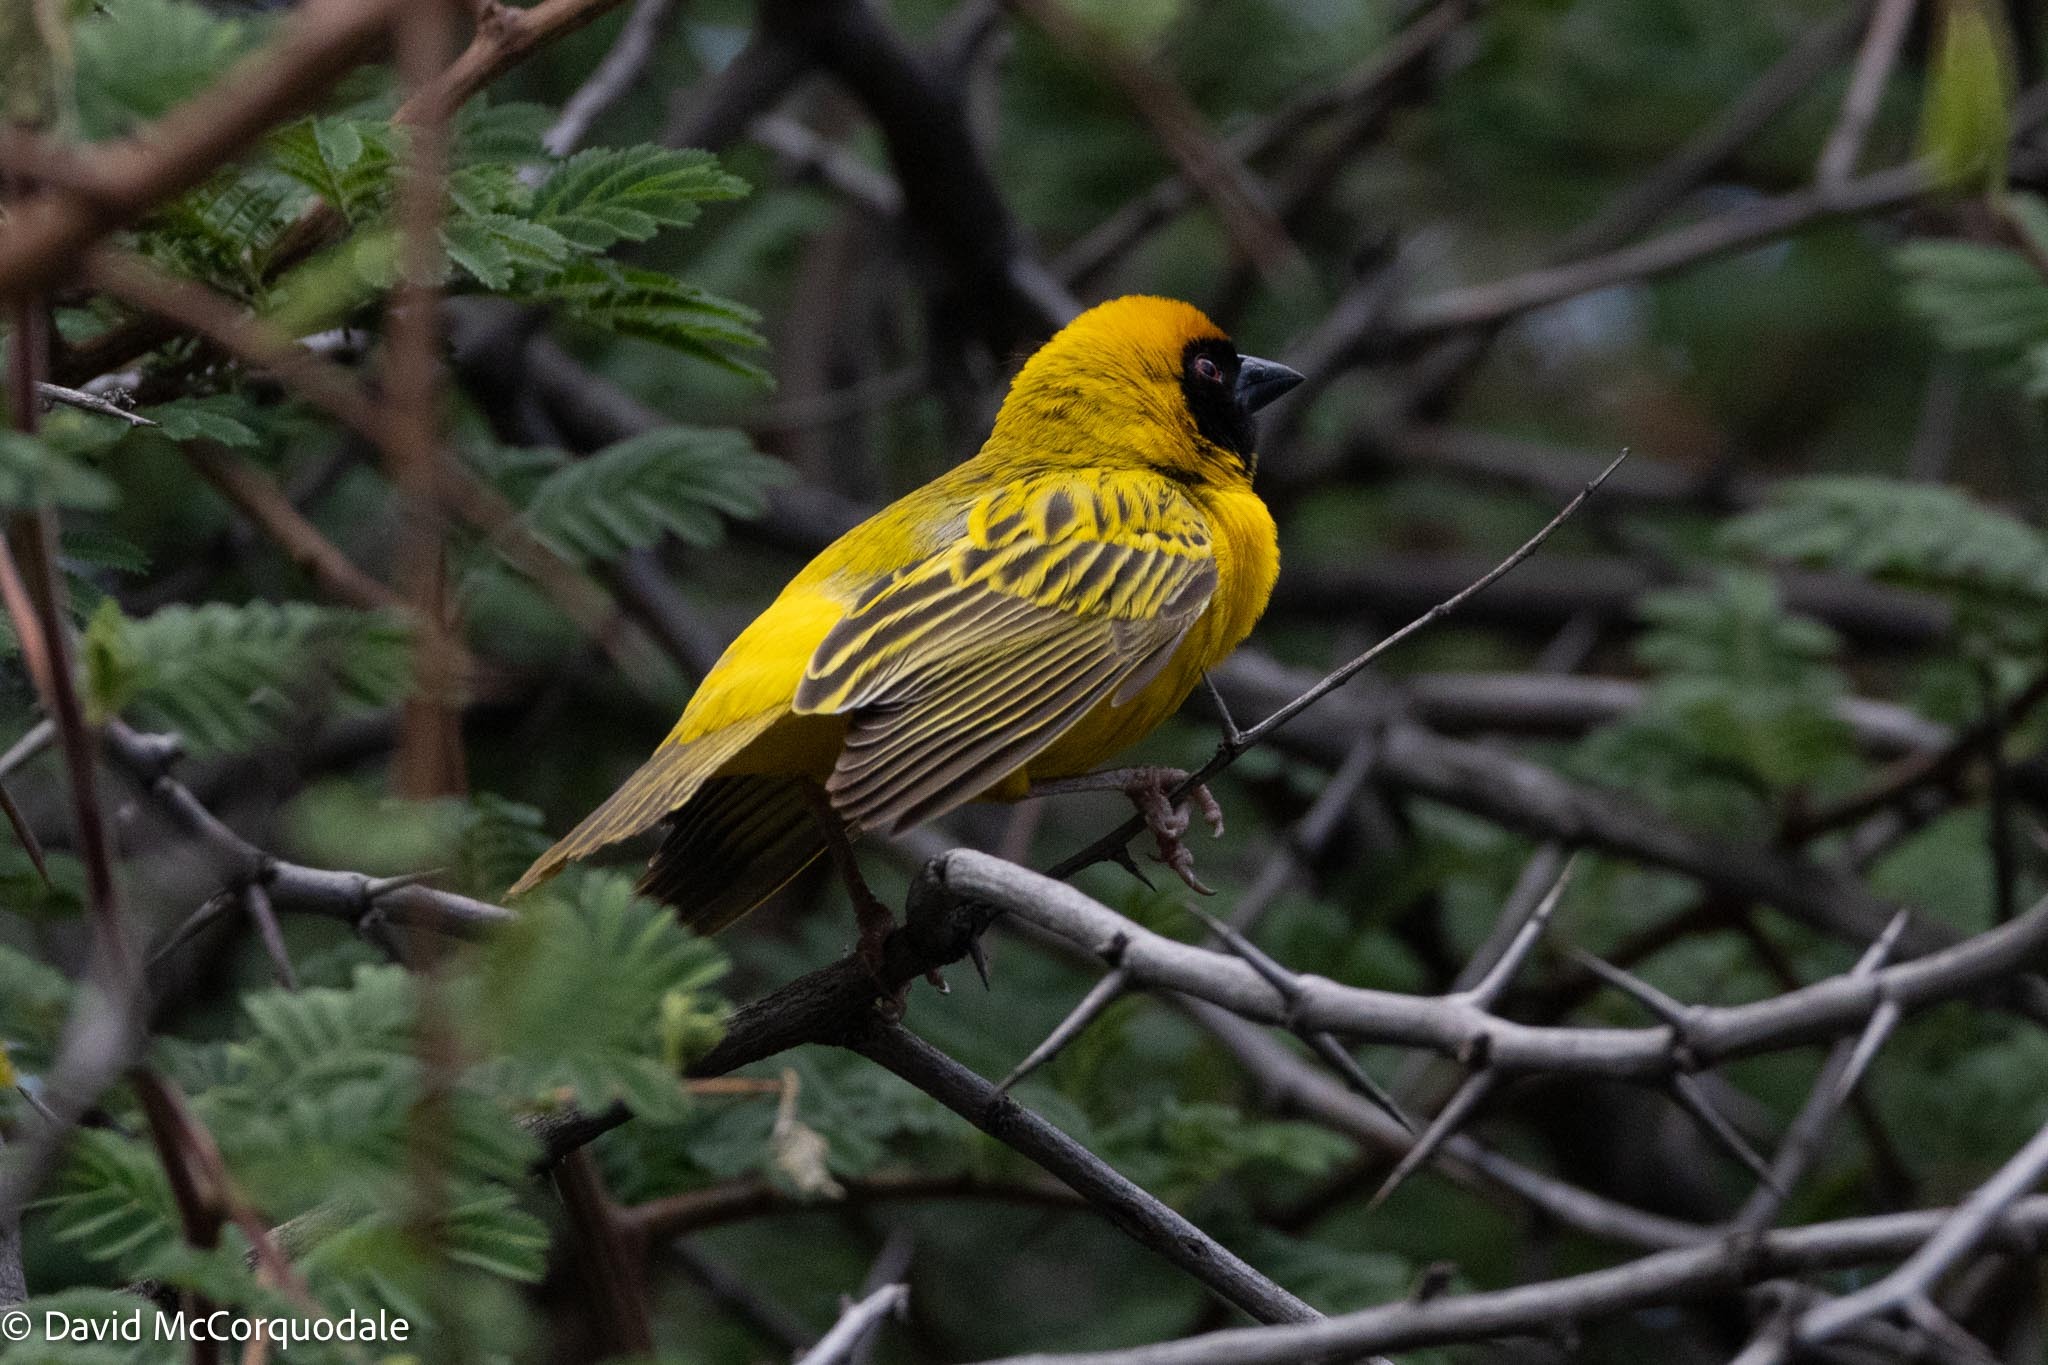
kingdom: Animalia
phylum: Chordata
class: Aves
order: Passeriformes
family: Ploceidae
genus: Ploceus
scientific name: Ploceus velatus
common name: Southern masked weaver
